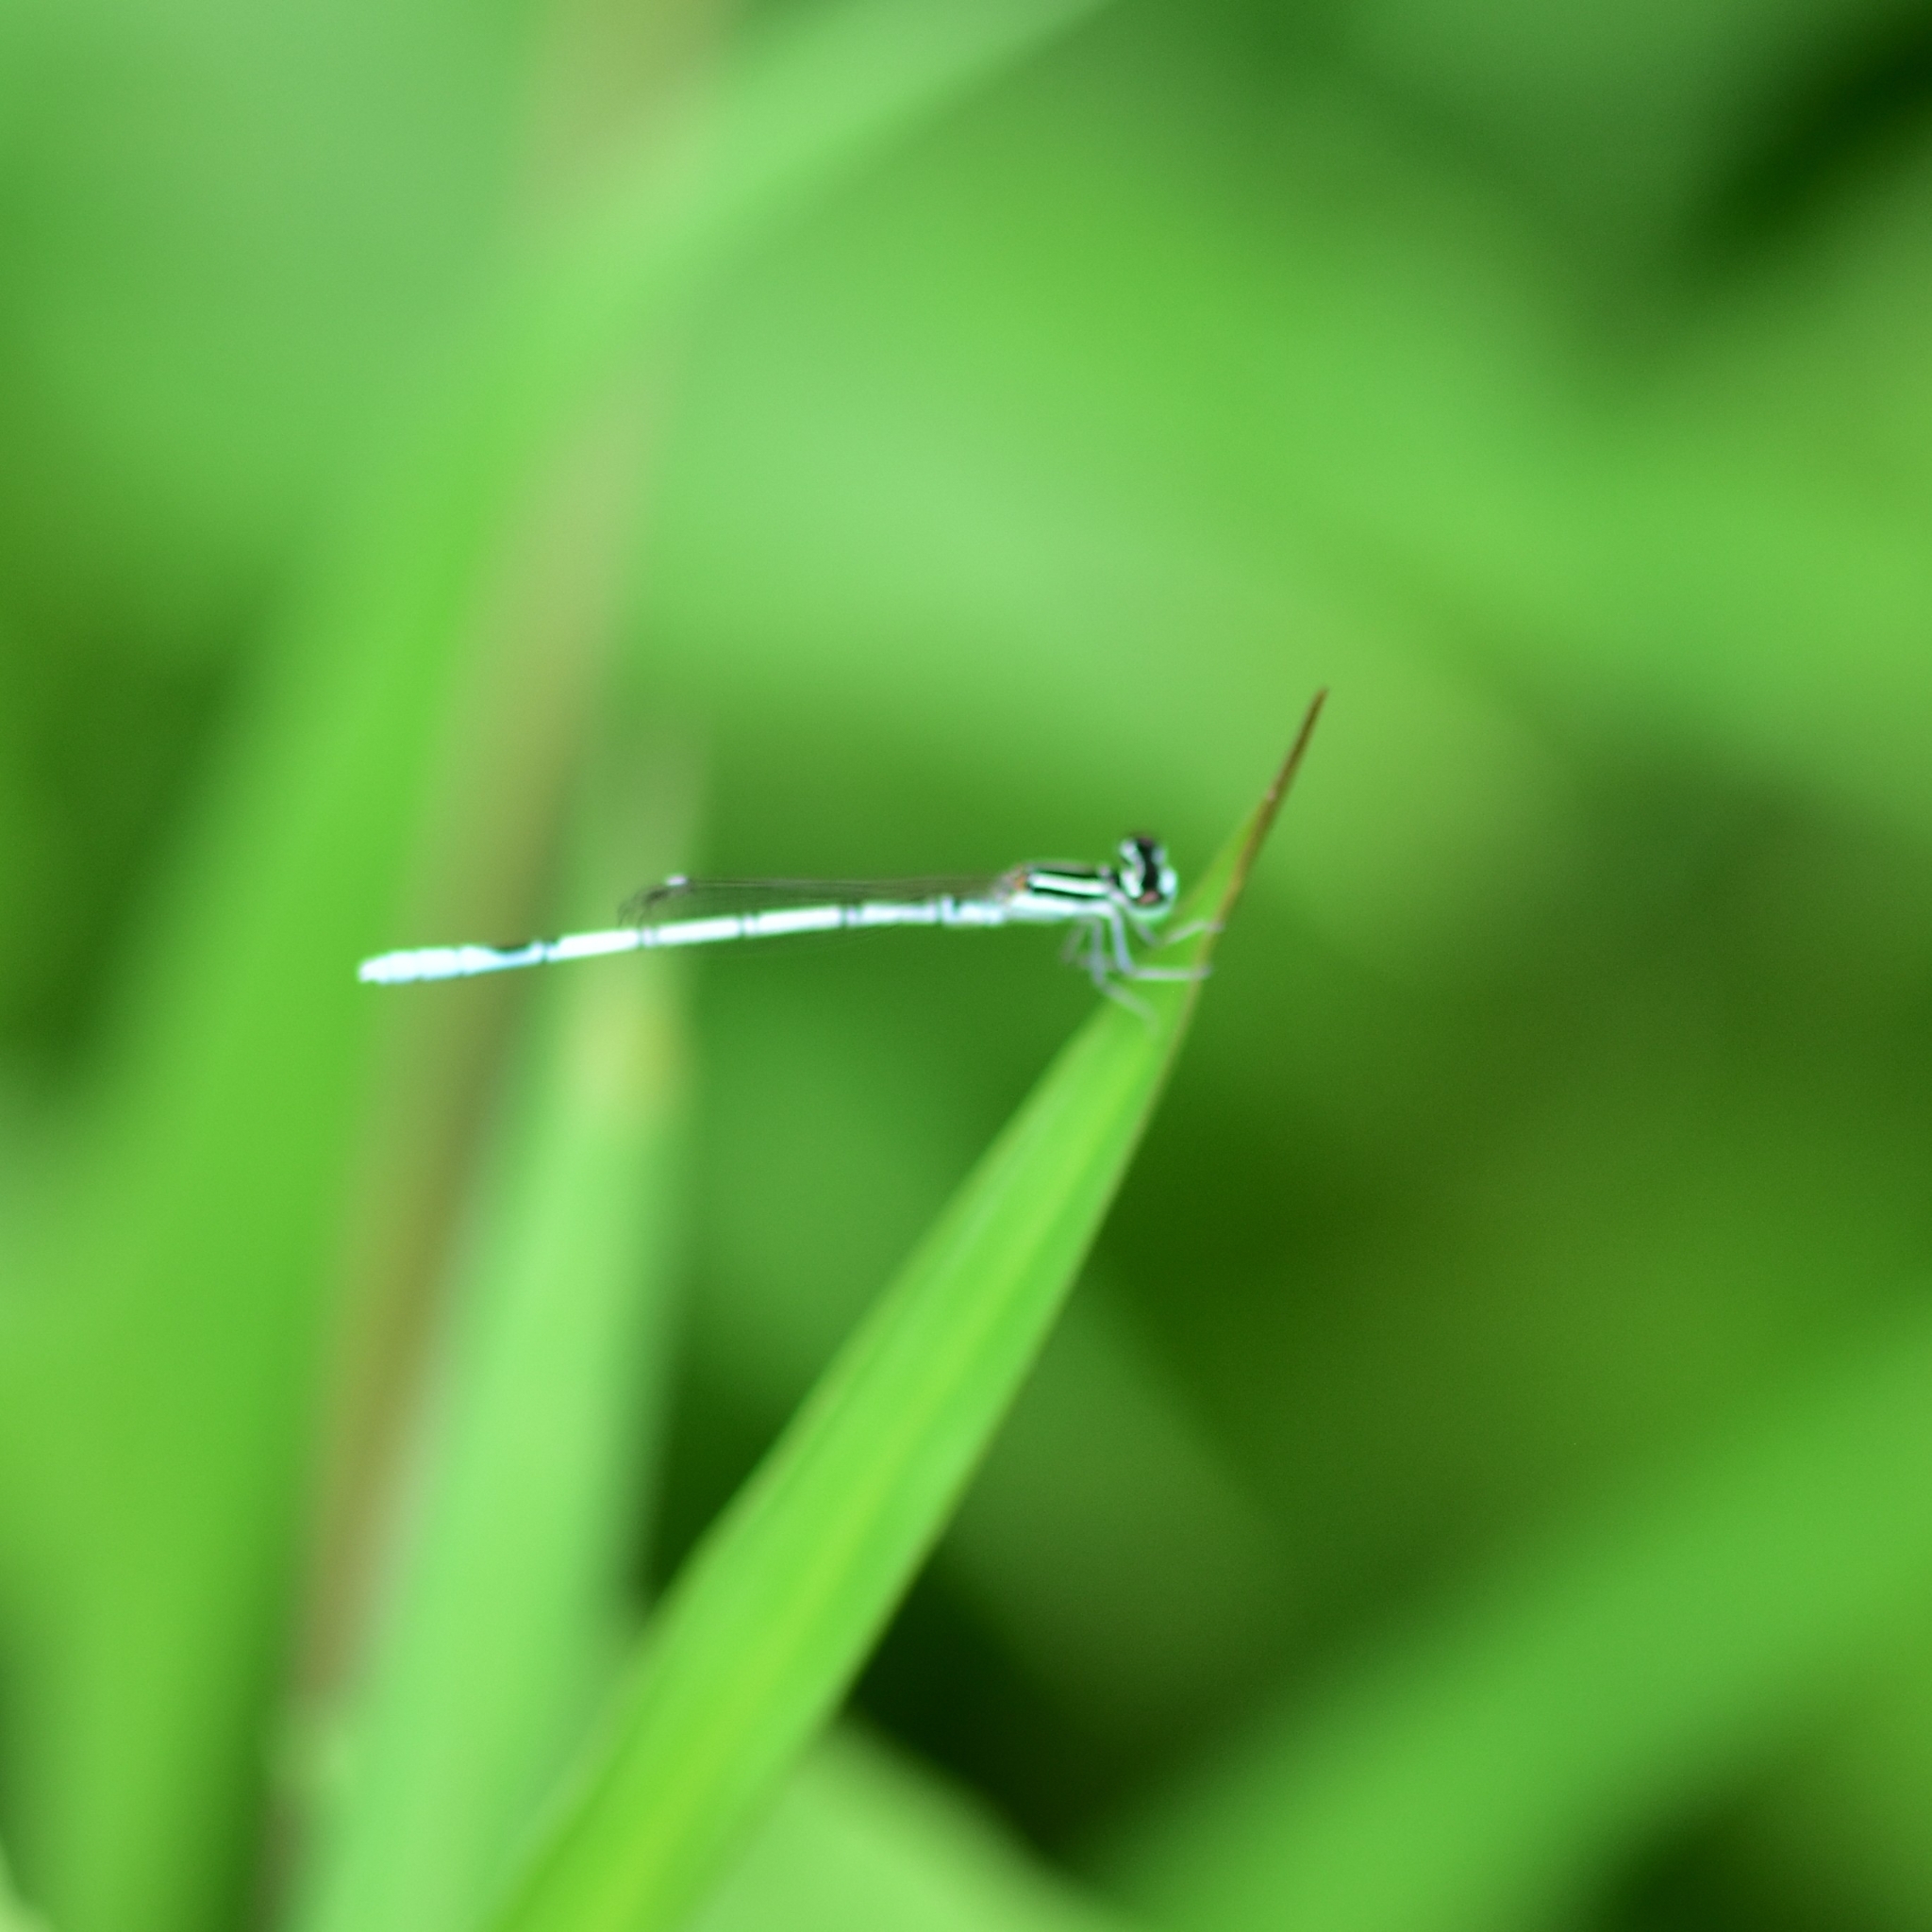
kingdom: Animalia
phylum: Arthropoda
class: Insecta
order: Odonata
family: Coenagrionidae
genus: Agriocnemis
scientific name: Agriocnemis pieris
